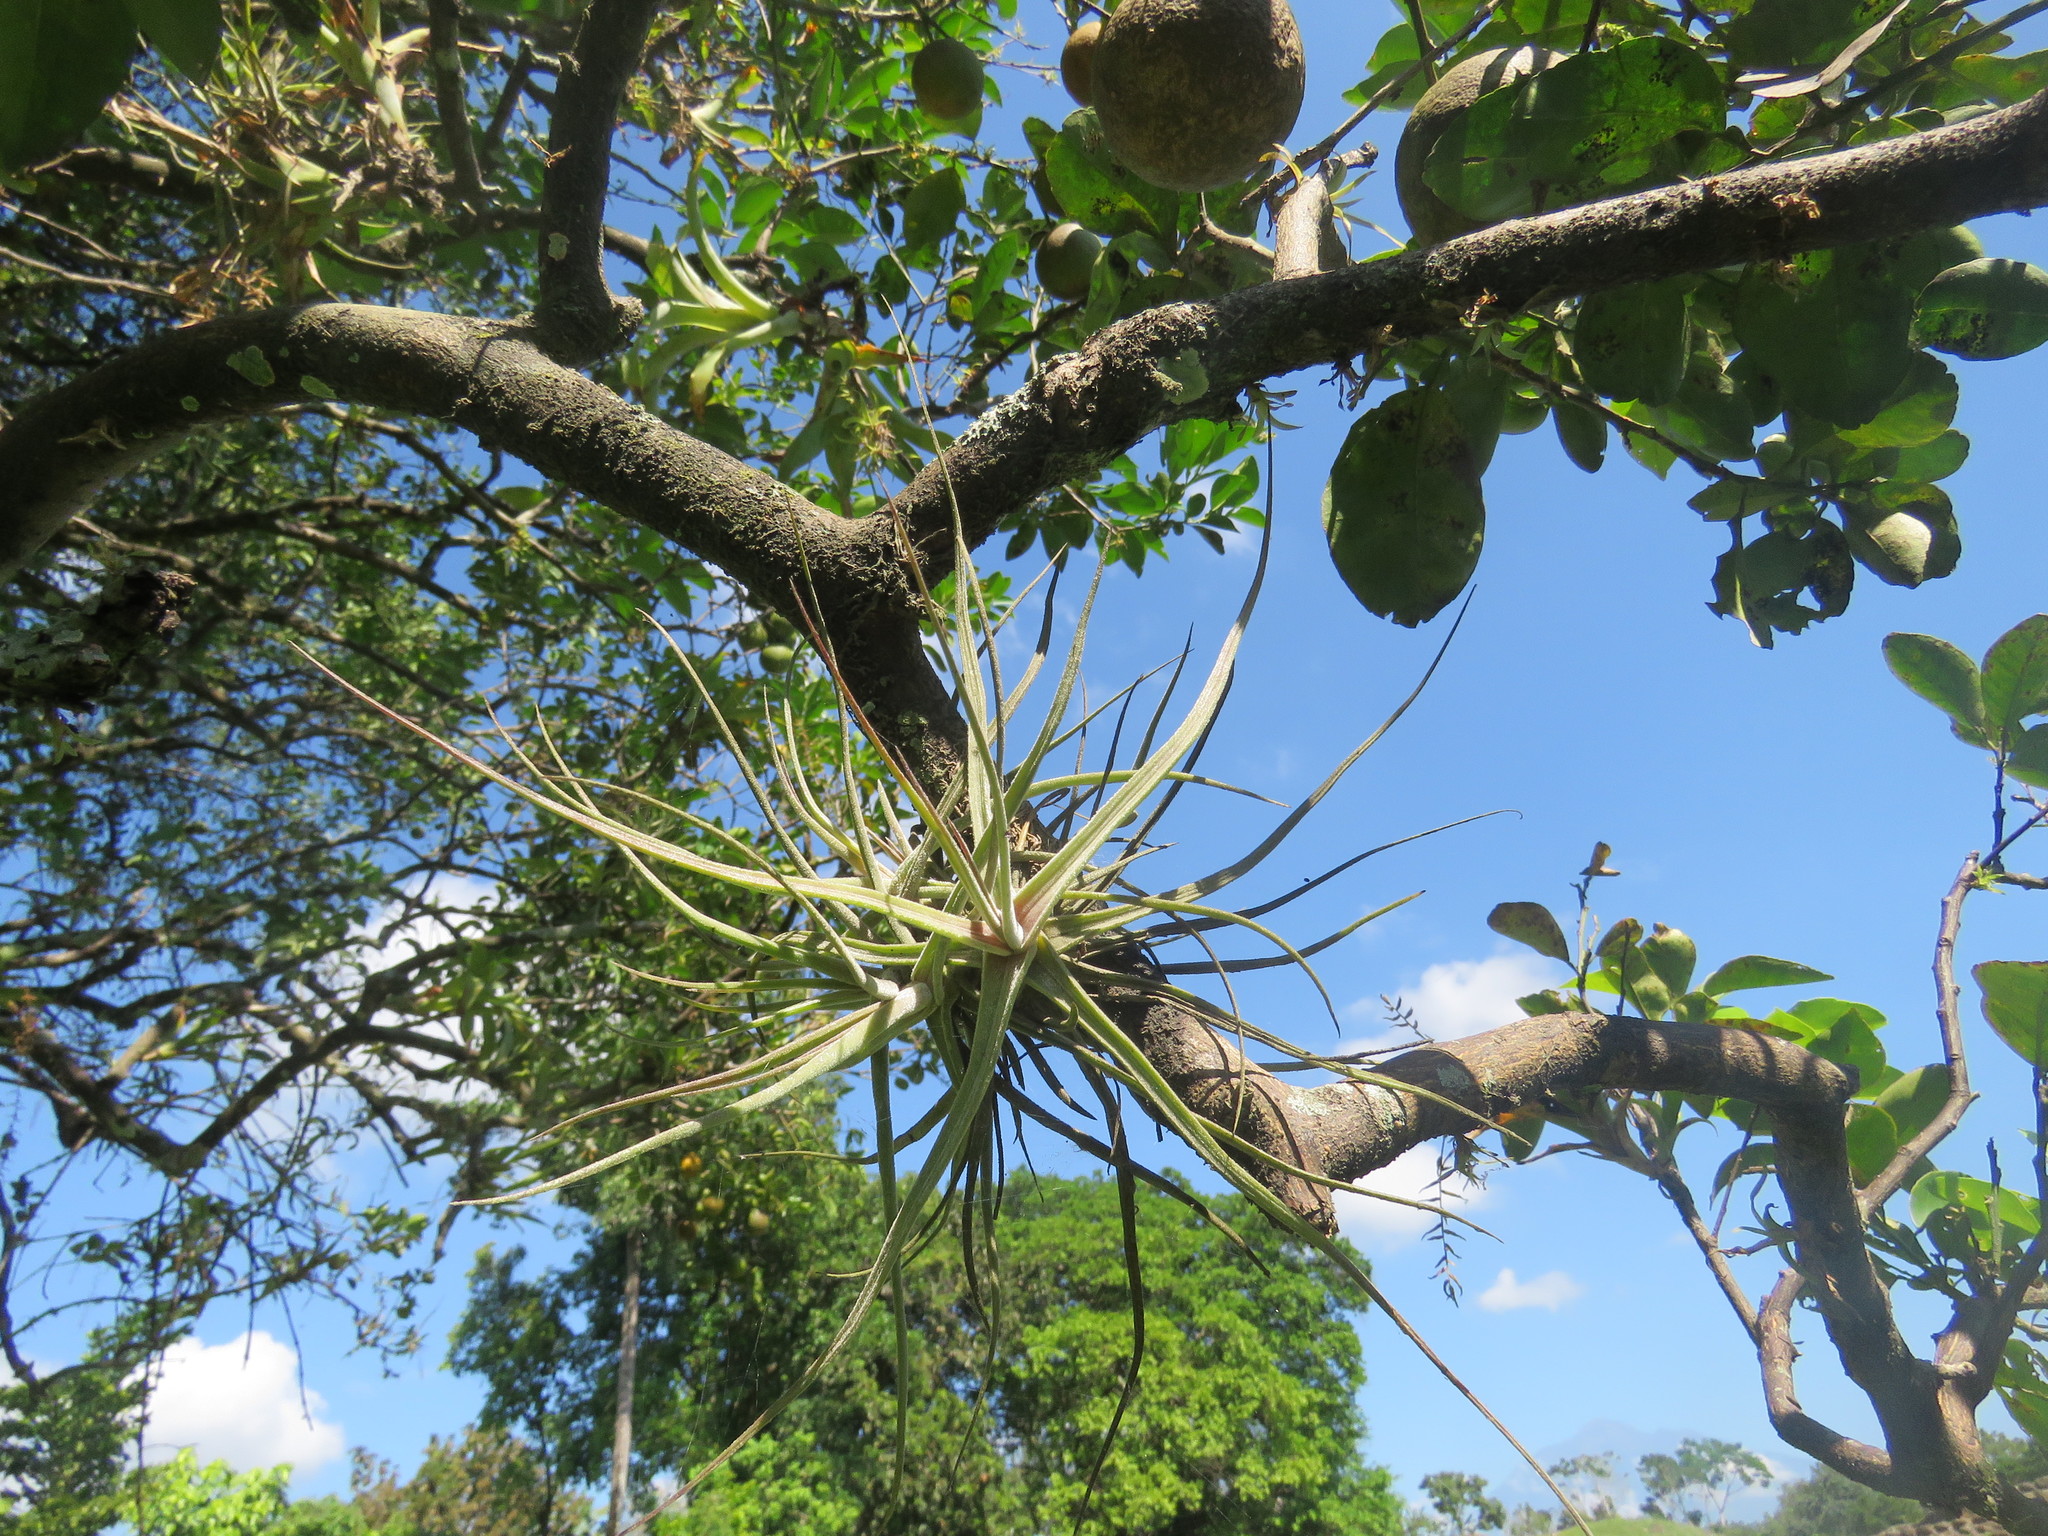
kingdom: Plantae
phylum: Tracheophyta
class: Liliopsida
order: Poales
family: Bromeliaceae
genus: Tillandsia
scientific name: Tillandsia schiedeana
